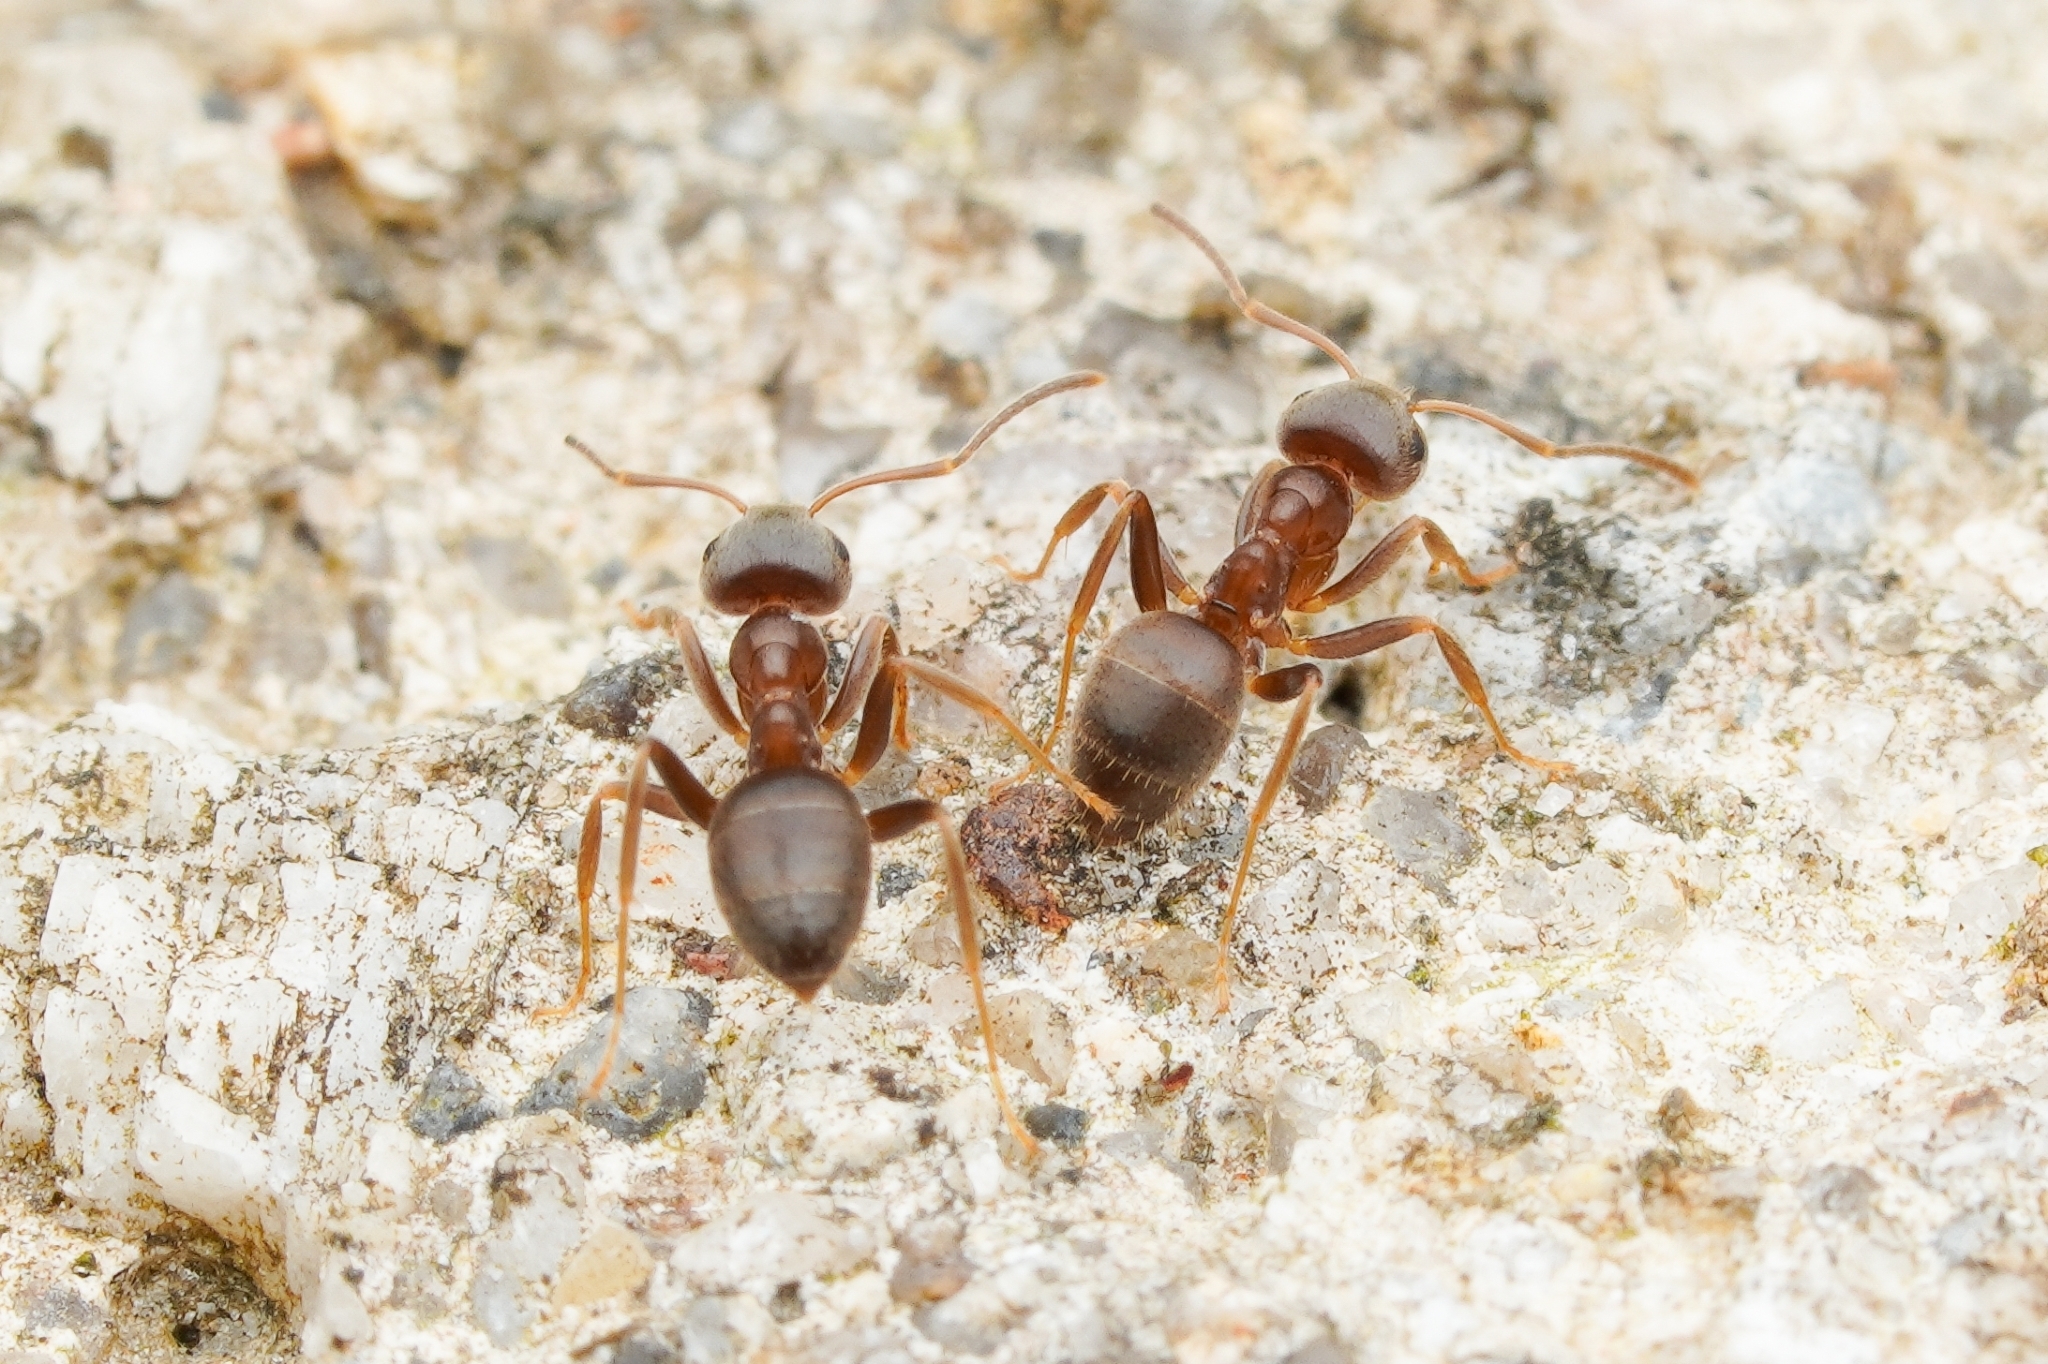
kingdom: Animalia
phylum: Arthropoda
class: Insecta
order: Hymenoptera
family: Formicidae
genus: Lasius
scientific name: Lasius
